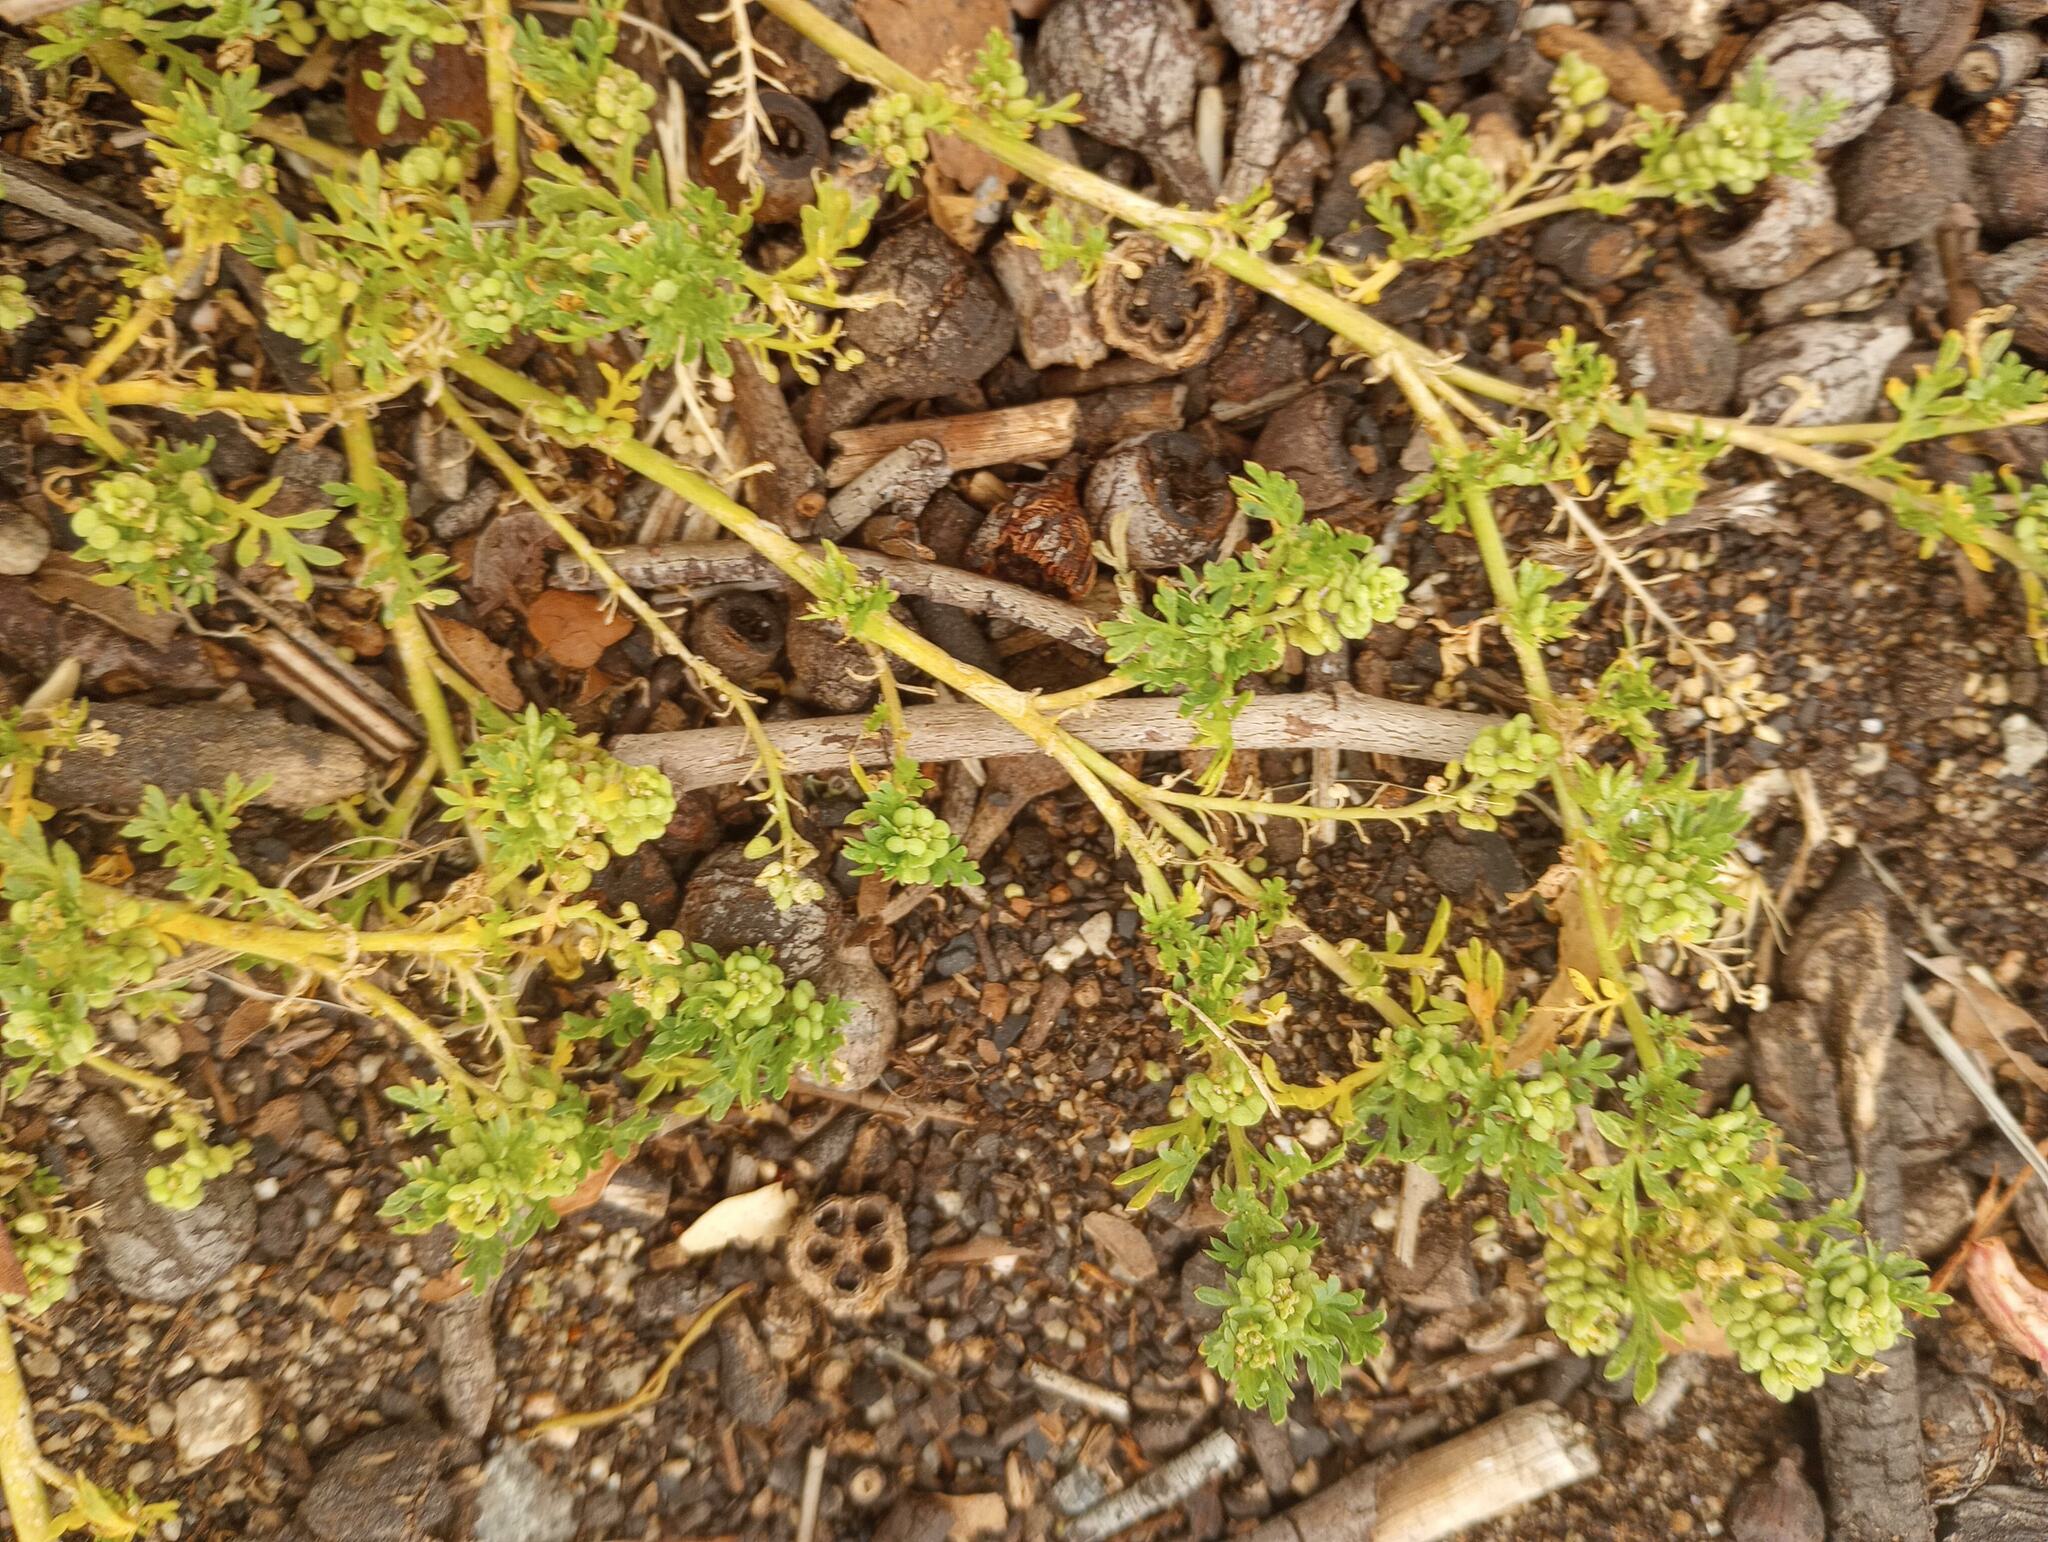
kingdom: Plantae
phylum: Tracheophyta
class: Magnoliopsida
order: Brassicales
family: Brassicaceae
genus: Lepidium
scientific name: Lepidium didymum
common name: Lesser swinecress
